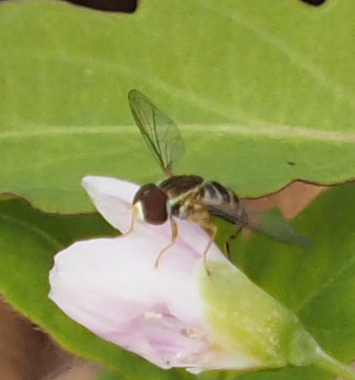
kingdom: Animalia
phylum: Arthropoda
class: Insecta
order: Diptera
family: Syrphidae
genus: Toxomerus
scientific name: Toxomerus geminatus
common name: Eastern calligrapher
